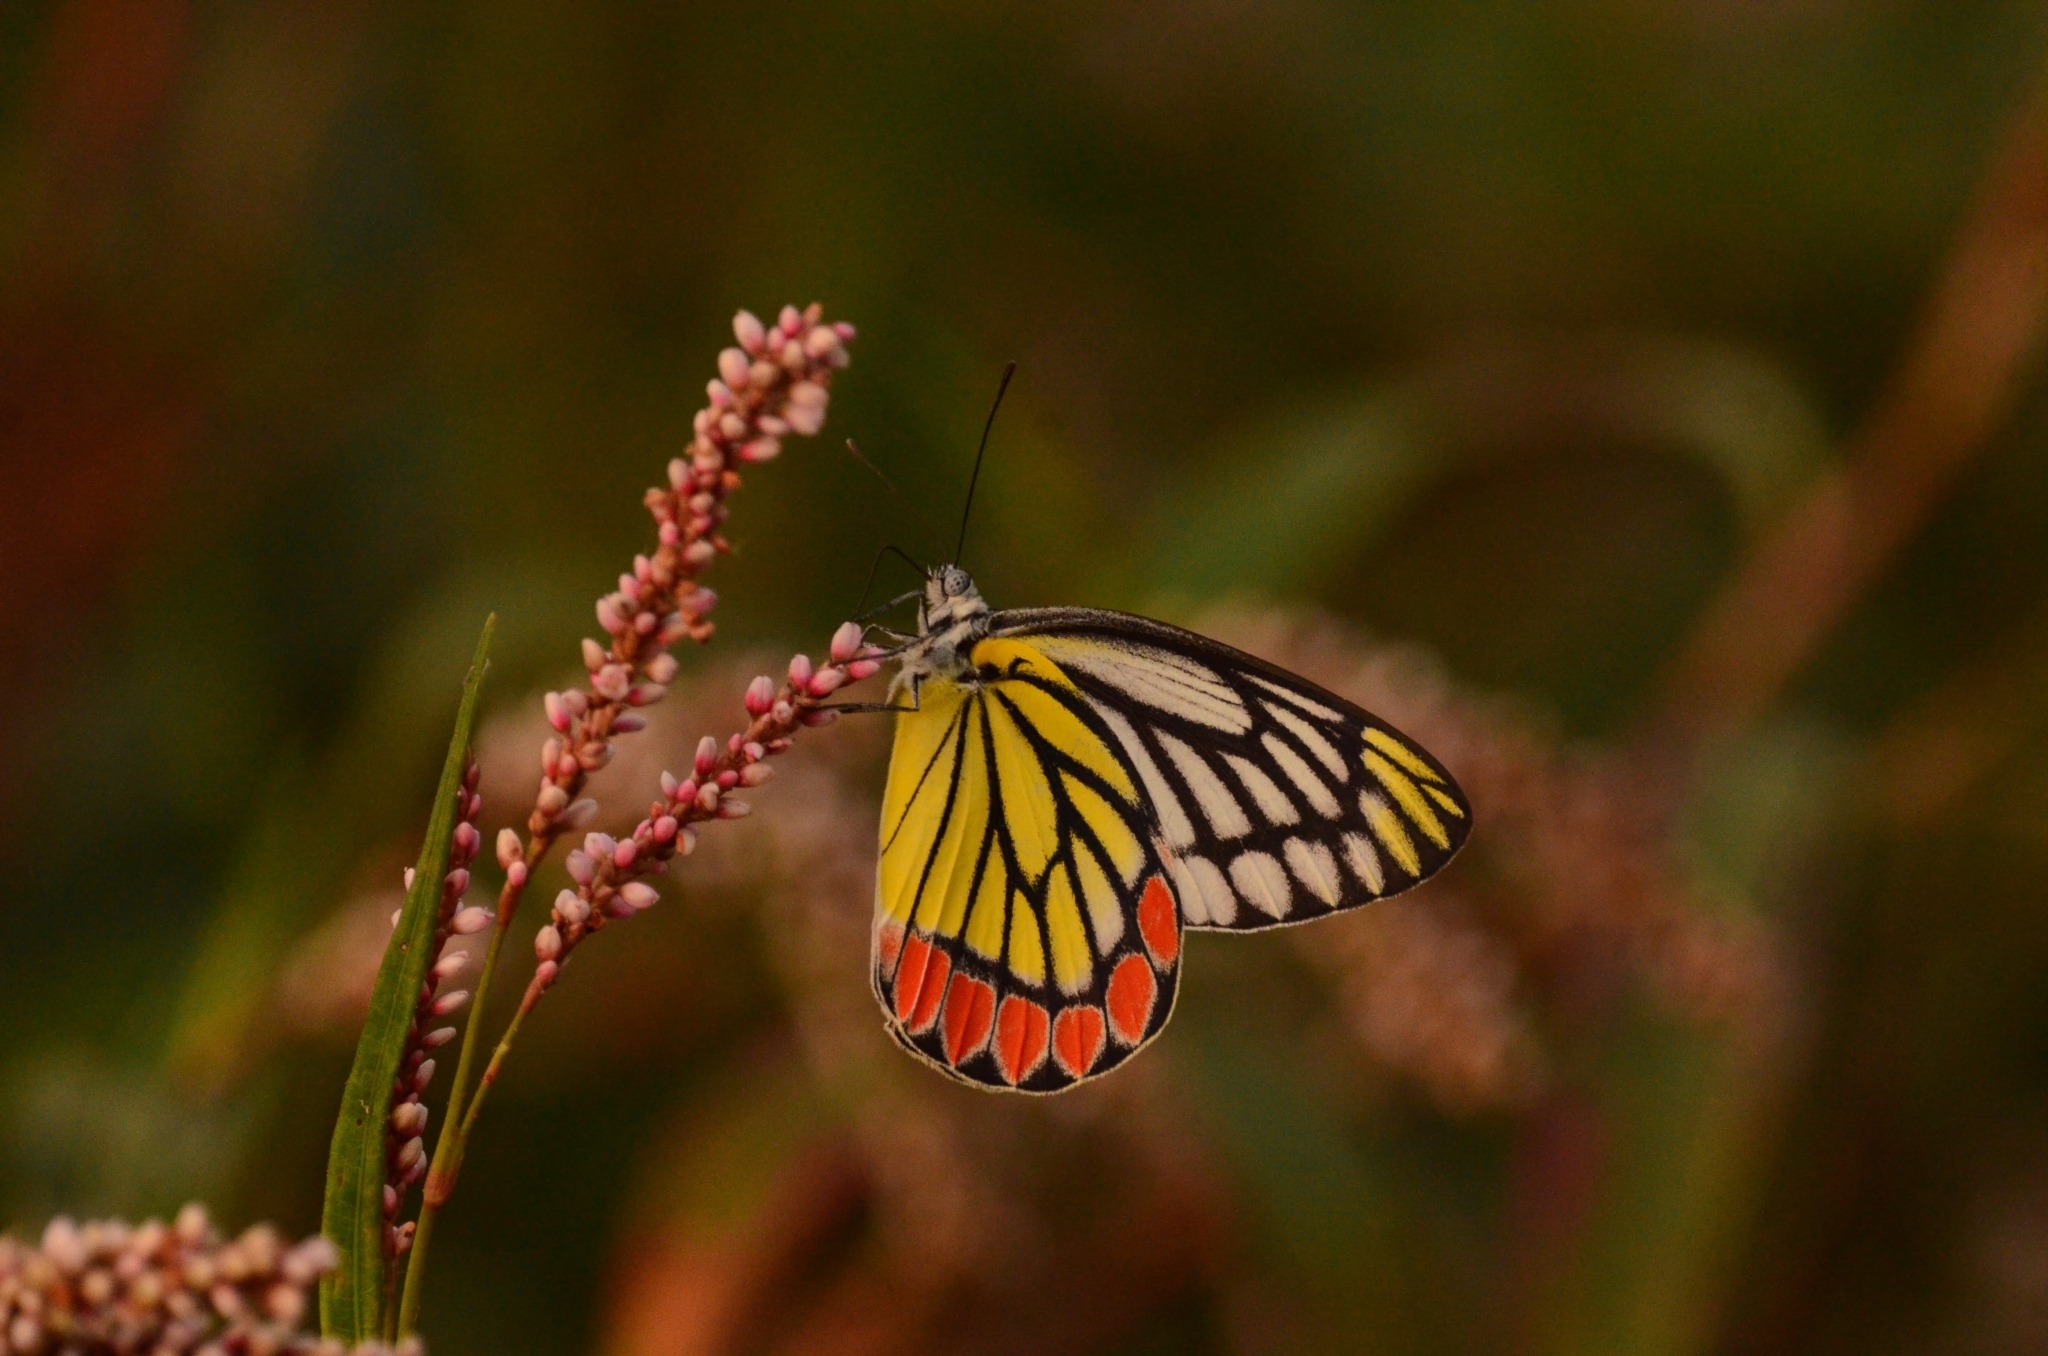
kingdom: Animalia
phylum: Arthropoda
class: Insecta
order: Lepidoptera
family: Pieridae
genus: Delias
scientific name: Delias eucharis
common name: Common jezebel
